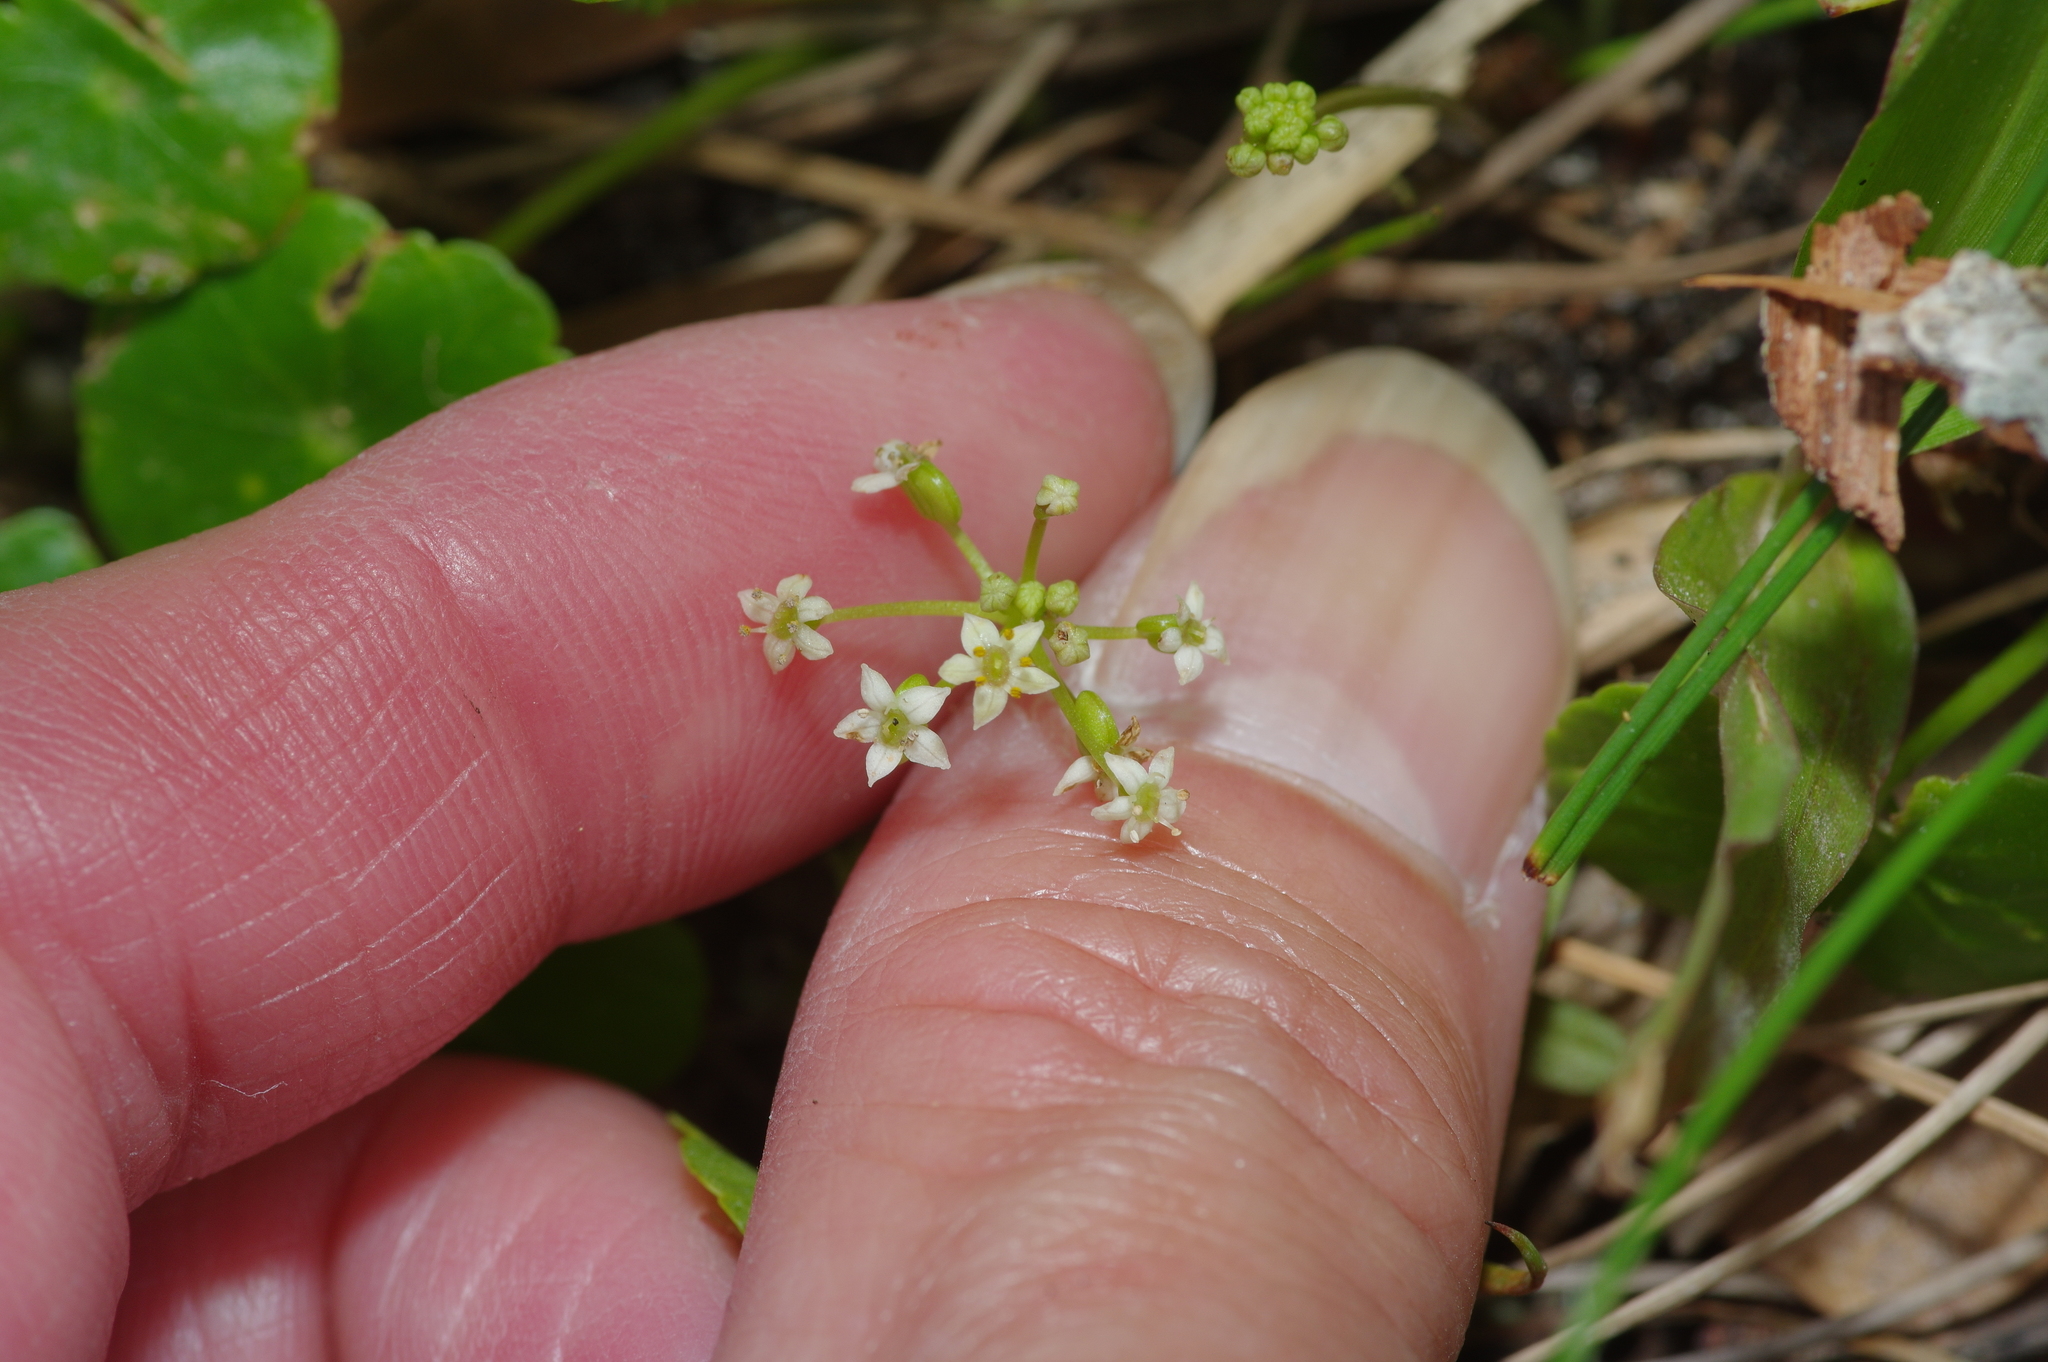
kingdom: Plantae
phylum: Tracheophyta
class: Magnoliopsida
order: Apiales
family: Araliaceae
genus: Hydrocotyle
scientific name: Hydrocotyle umbellata
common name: Water pennywort
